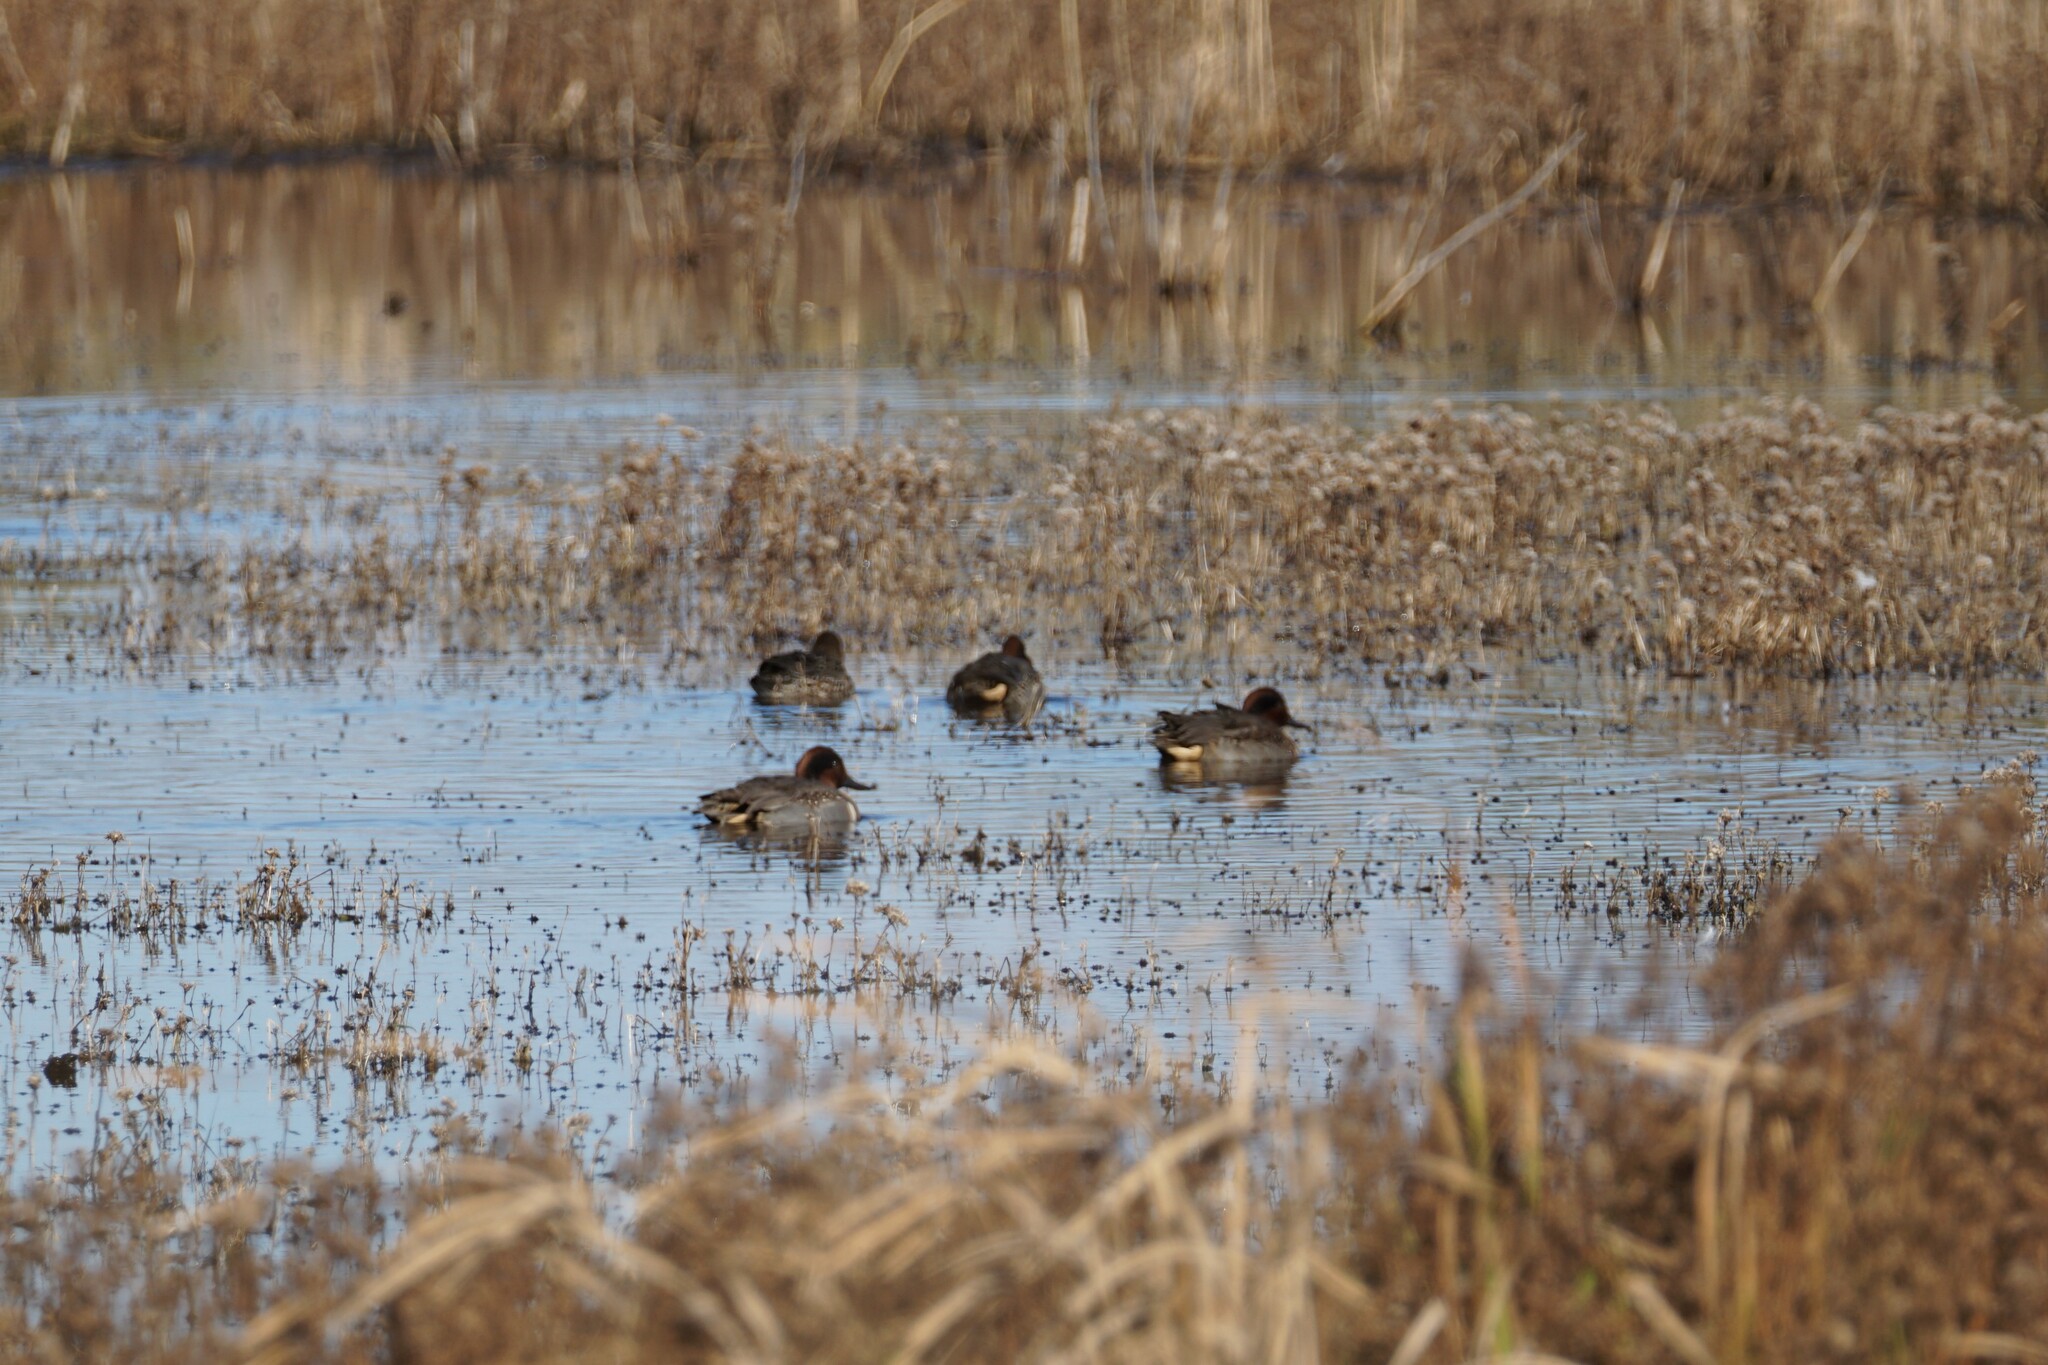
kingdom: Animalia
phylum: Chordata
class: Aves
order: Anseriformes
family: Anatidae
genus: Anas
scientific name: Anas crecca
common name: Eurasian teal
